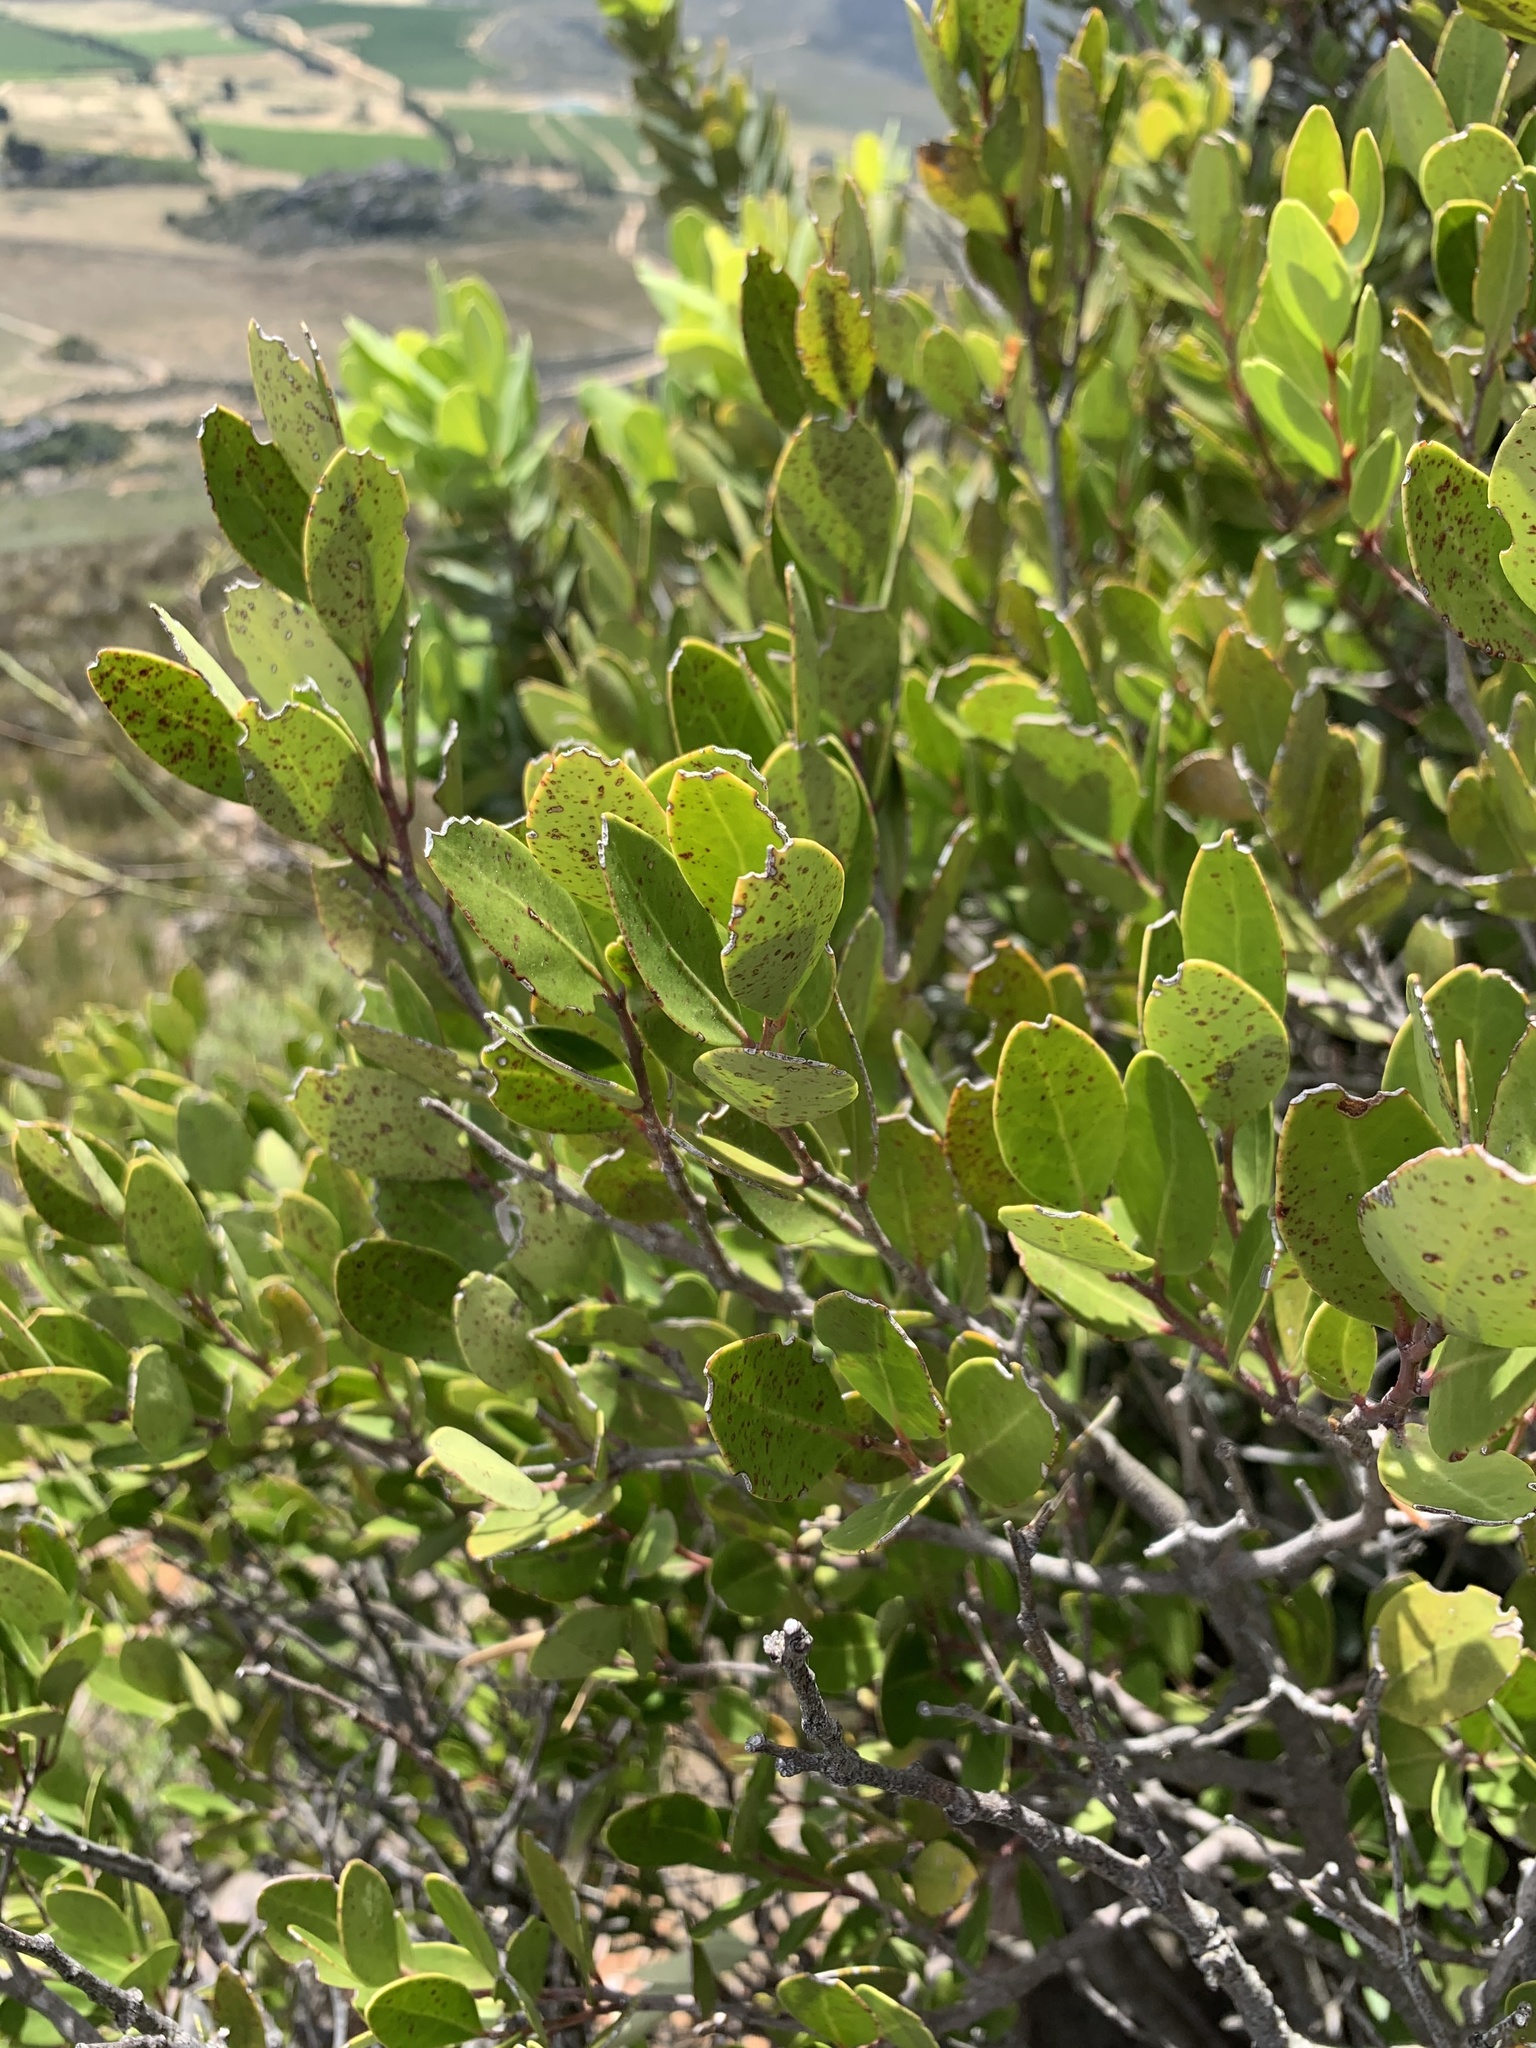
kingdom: Plantae
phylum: Tracheophyta
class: Magnoliopsida
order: Celastrales
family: Celastraceae
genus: Gymnosporia
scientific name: Gymnosporia laurina
